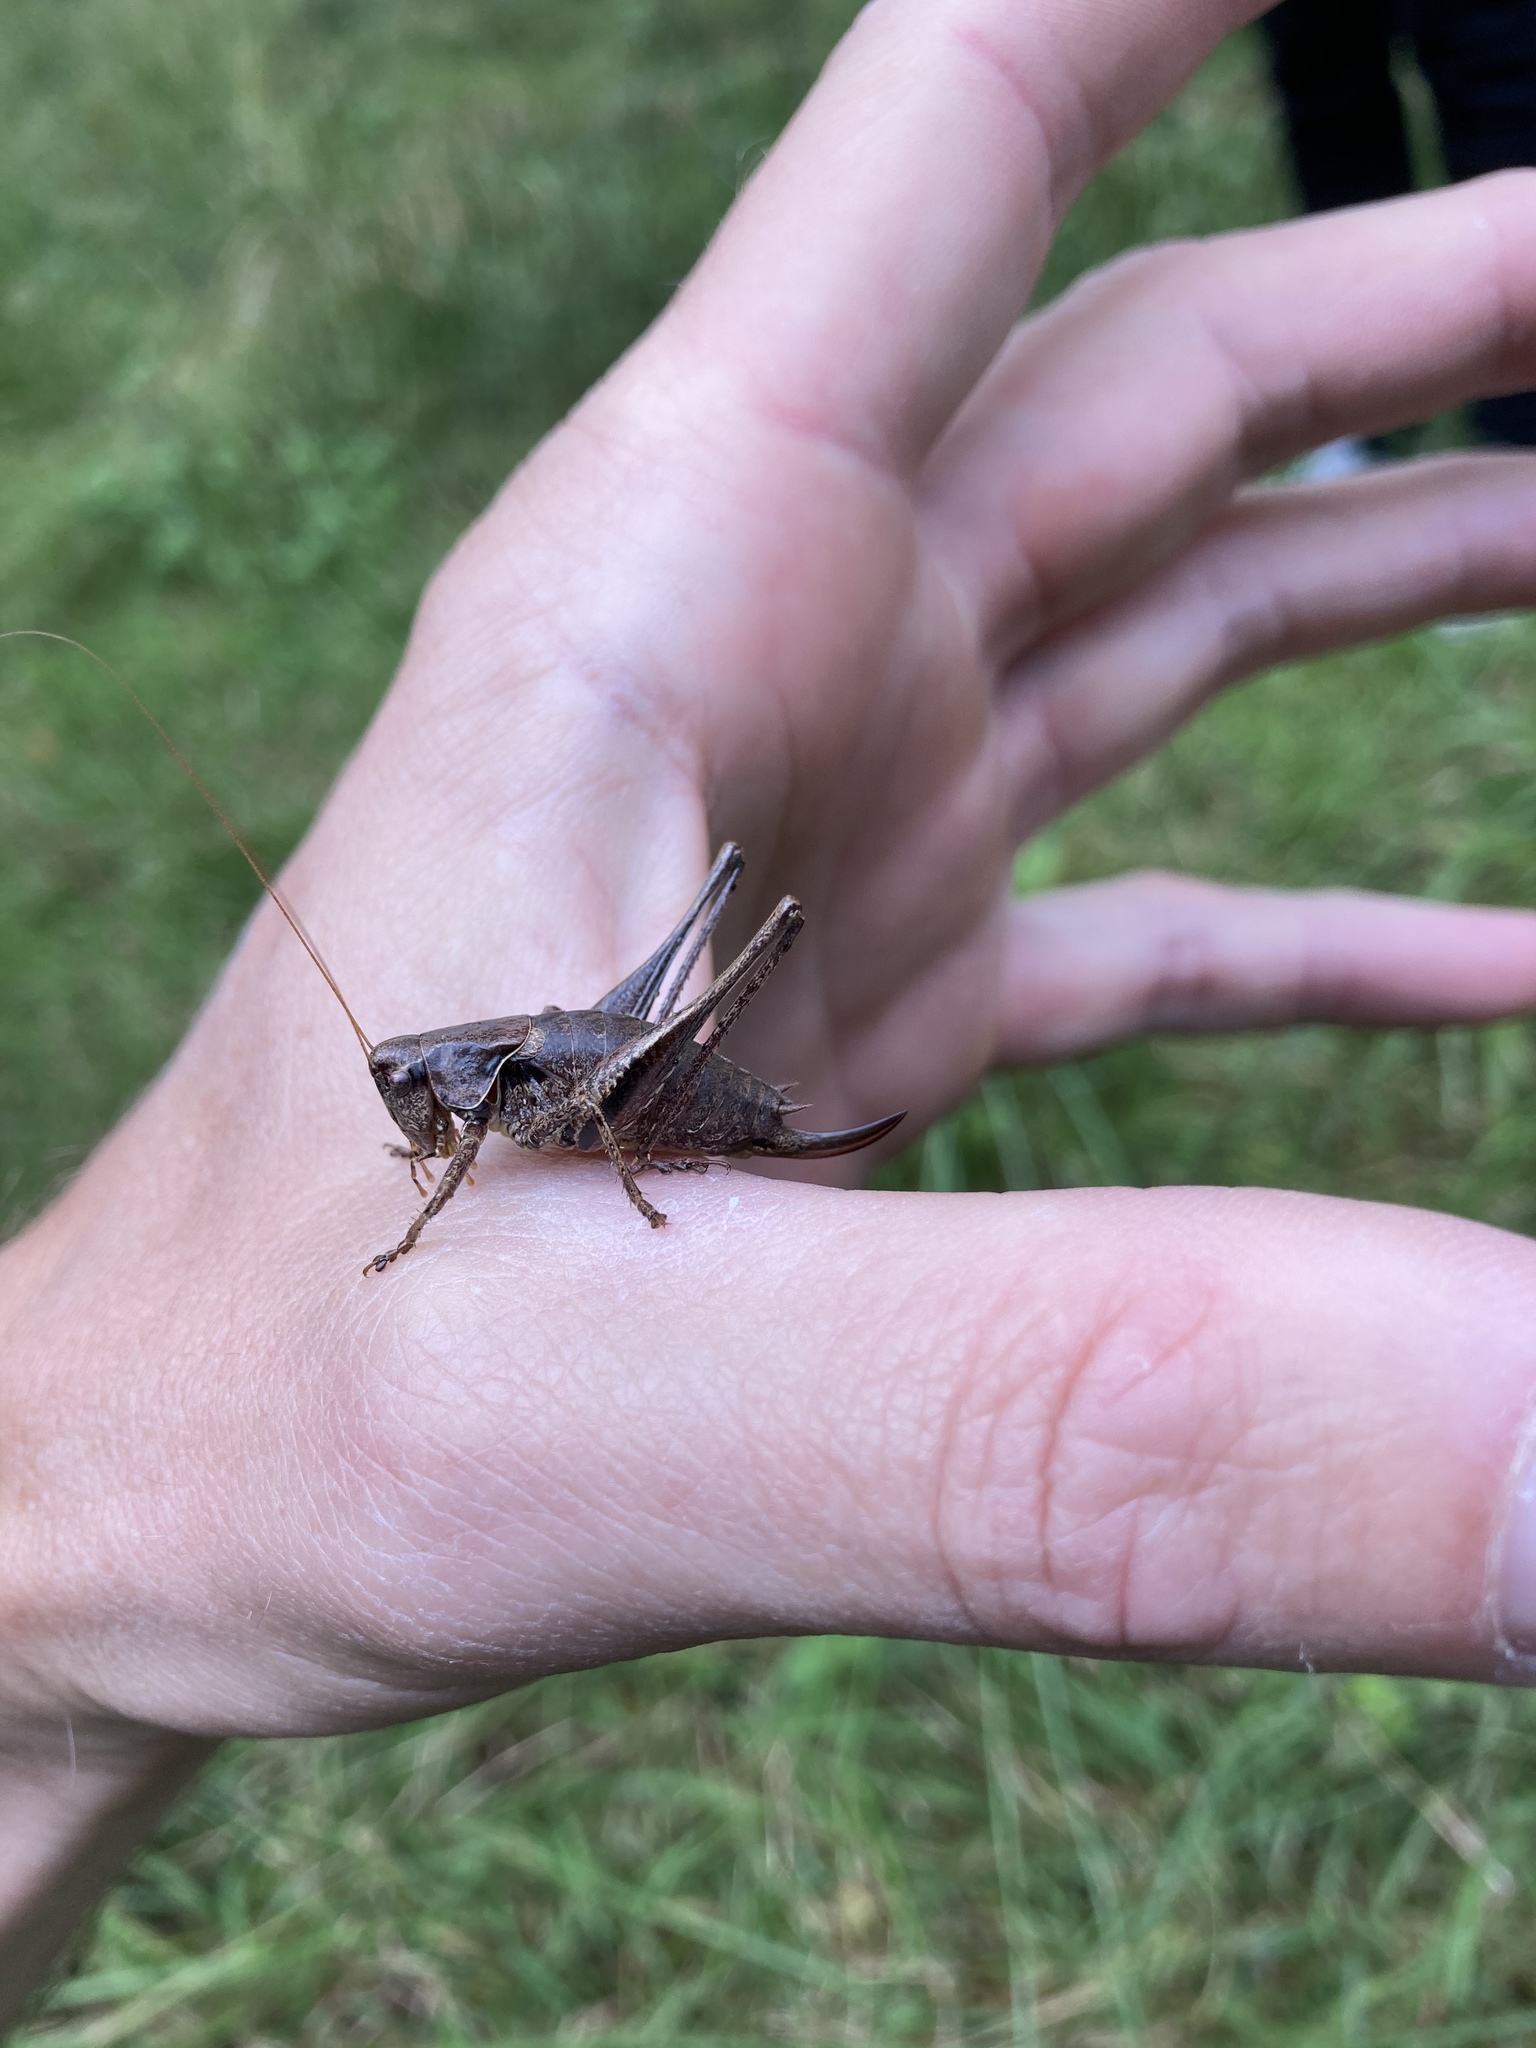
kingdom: Animalia
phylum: Arthropoda
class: Insecta
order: Orthoptera
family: Tettigoniidae
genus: Pholidoptera
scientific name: Pholidoptera griseoaptera
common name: Dark bush-cricket
